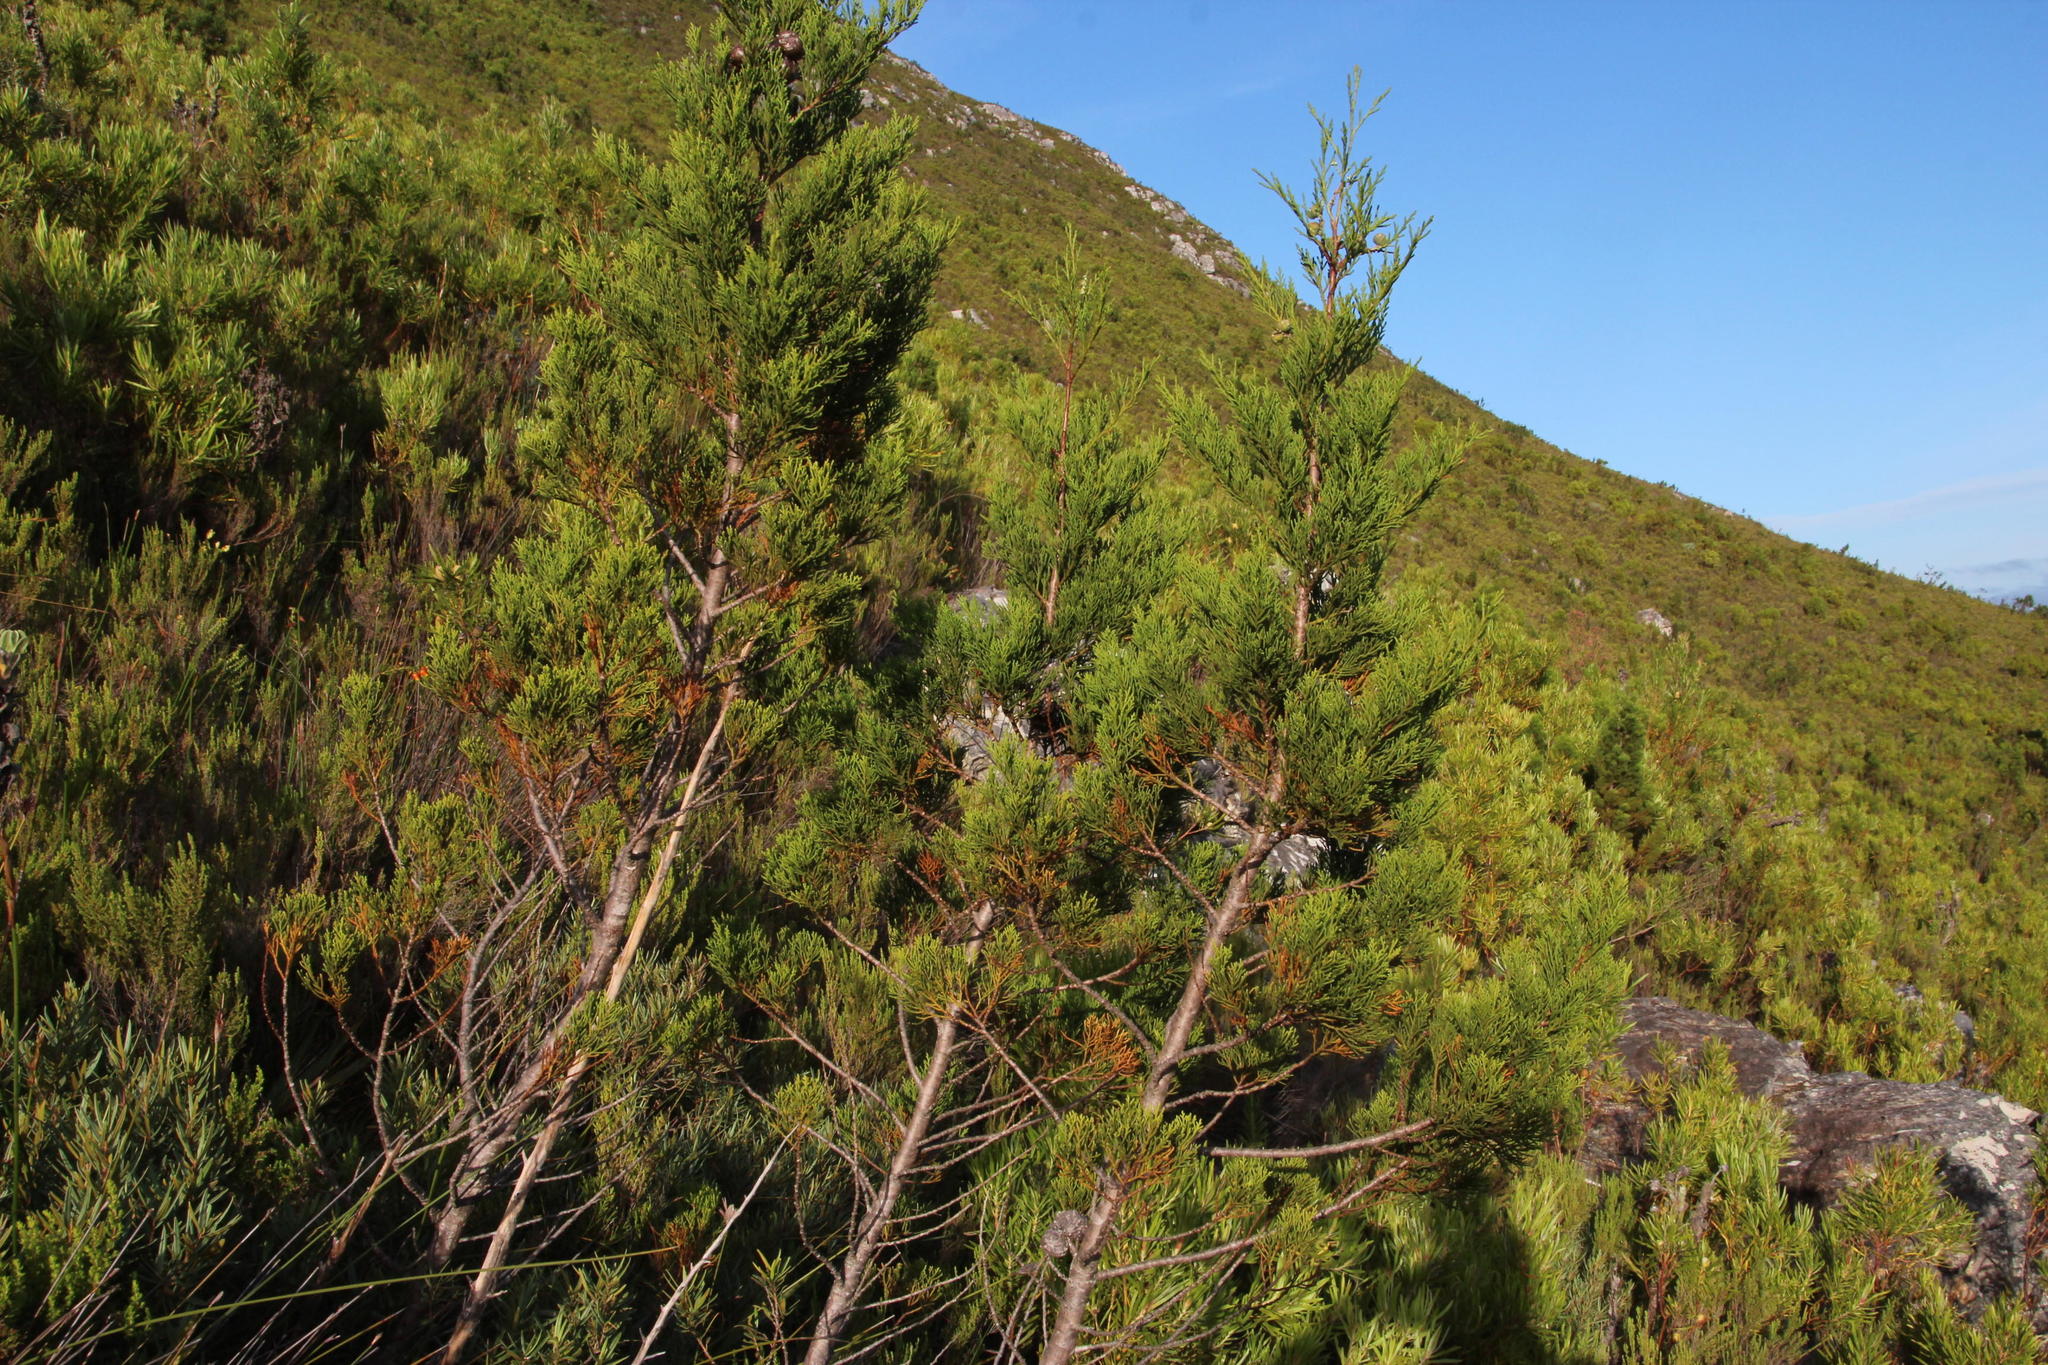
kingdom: Plantae
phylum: Tracheophyta
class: Pinopsida
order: Pinales
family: Cupressaceae
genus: Widdringtonia
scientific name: Widdringtonia nodiflora
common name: Cape cypress
